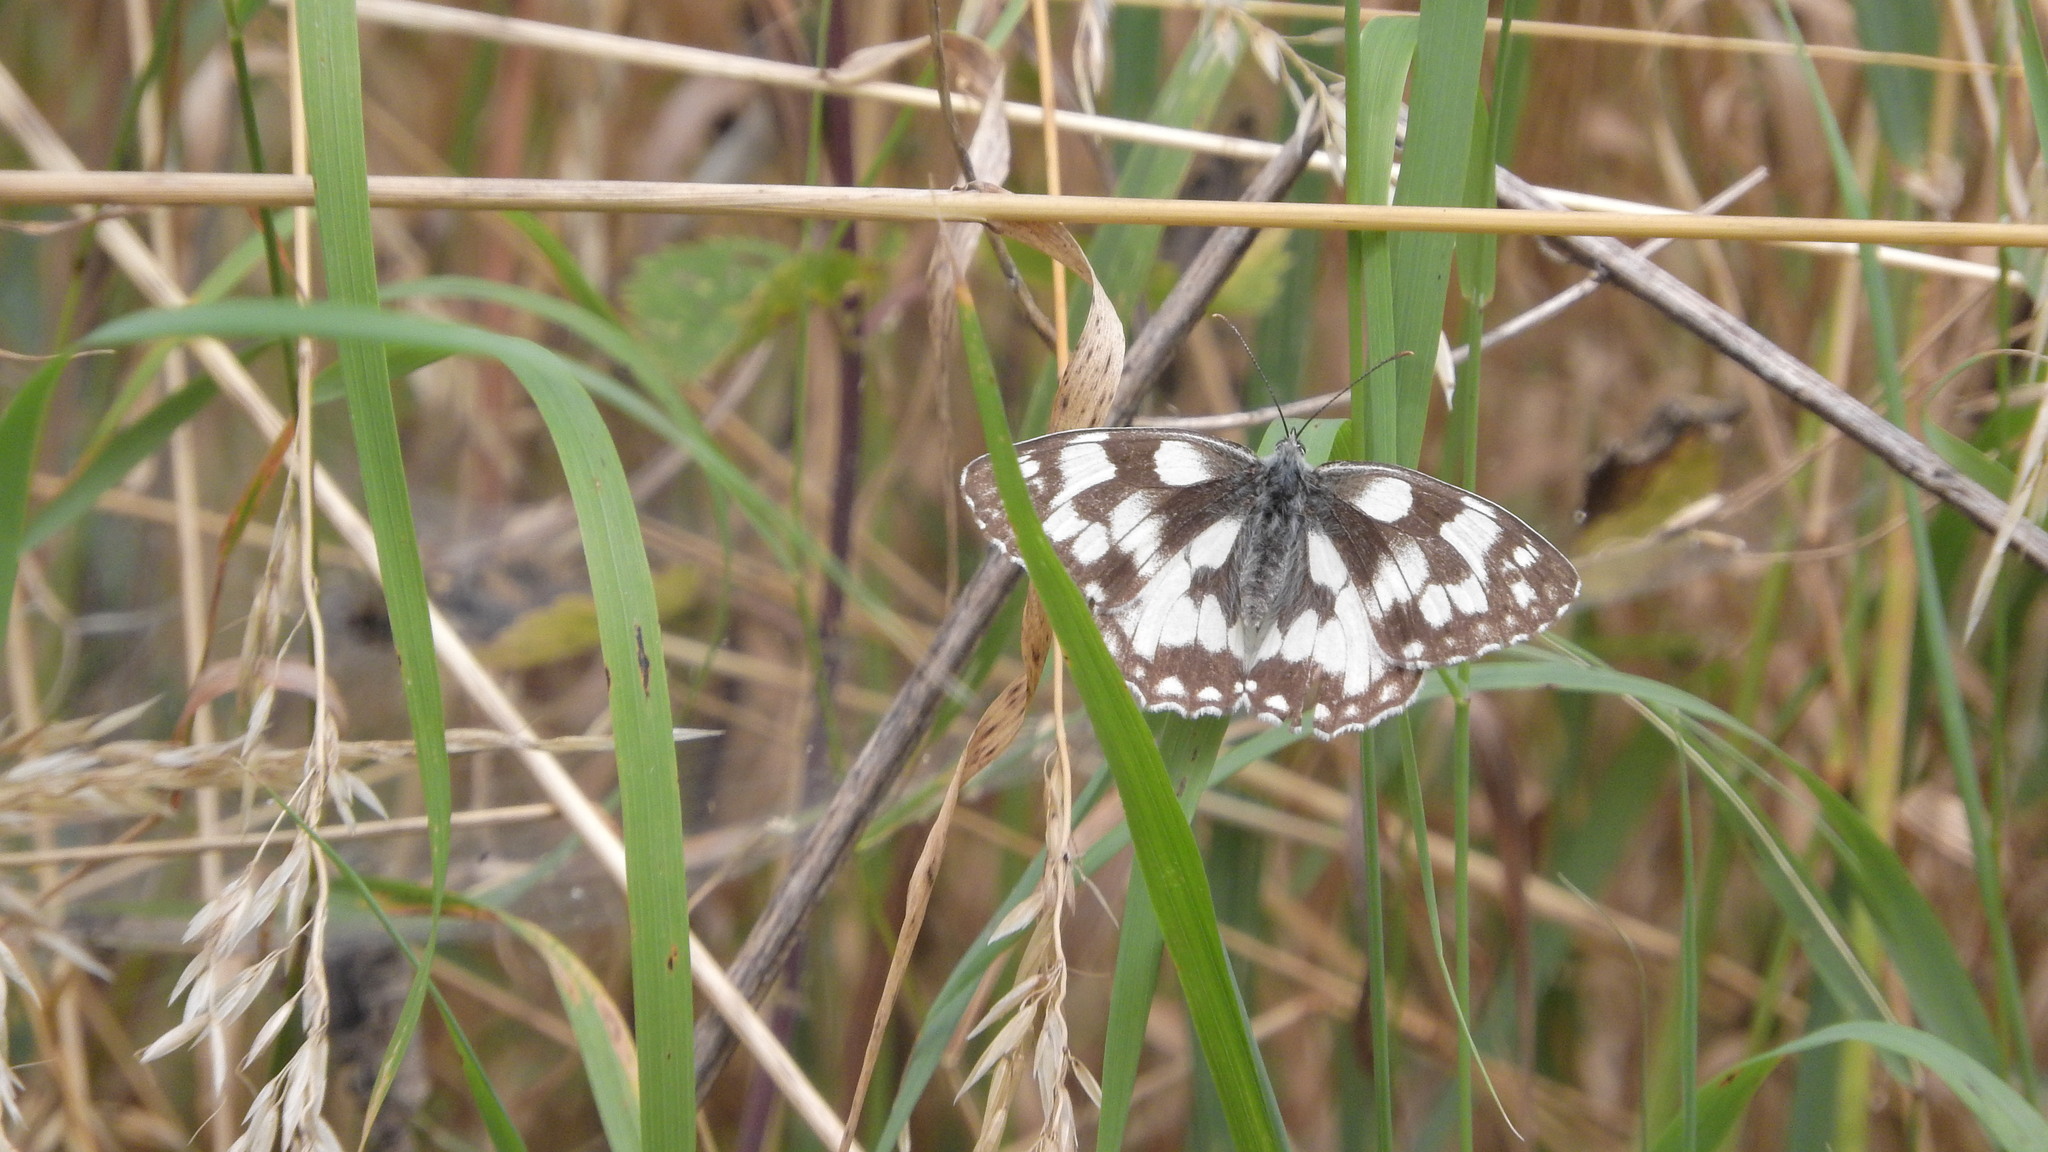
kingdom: Animalia
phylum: Arthropoda
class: Insecta
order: Lepidoptera
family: Nymphalidae
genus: Melanargia
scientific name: Melanargia galathea
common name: Marbled white
